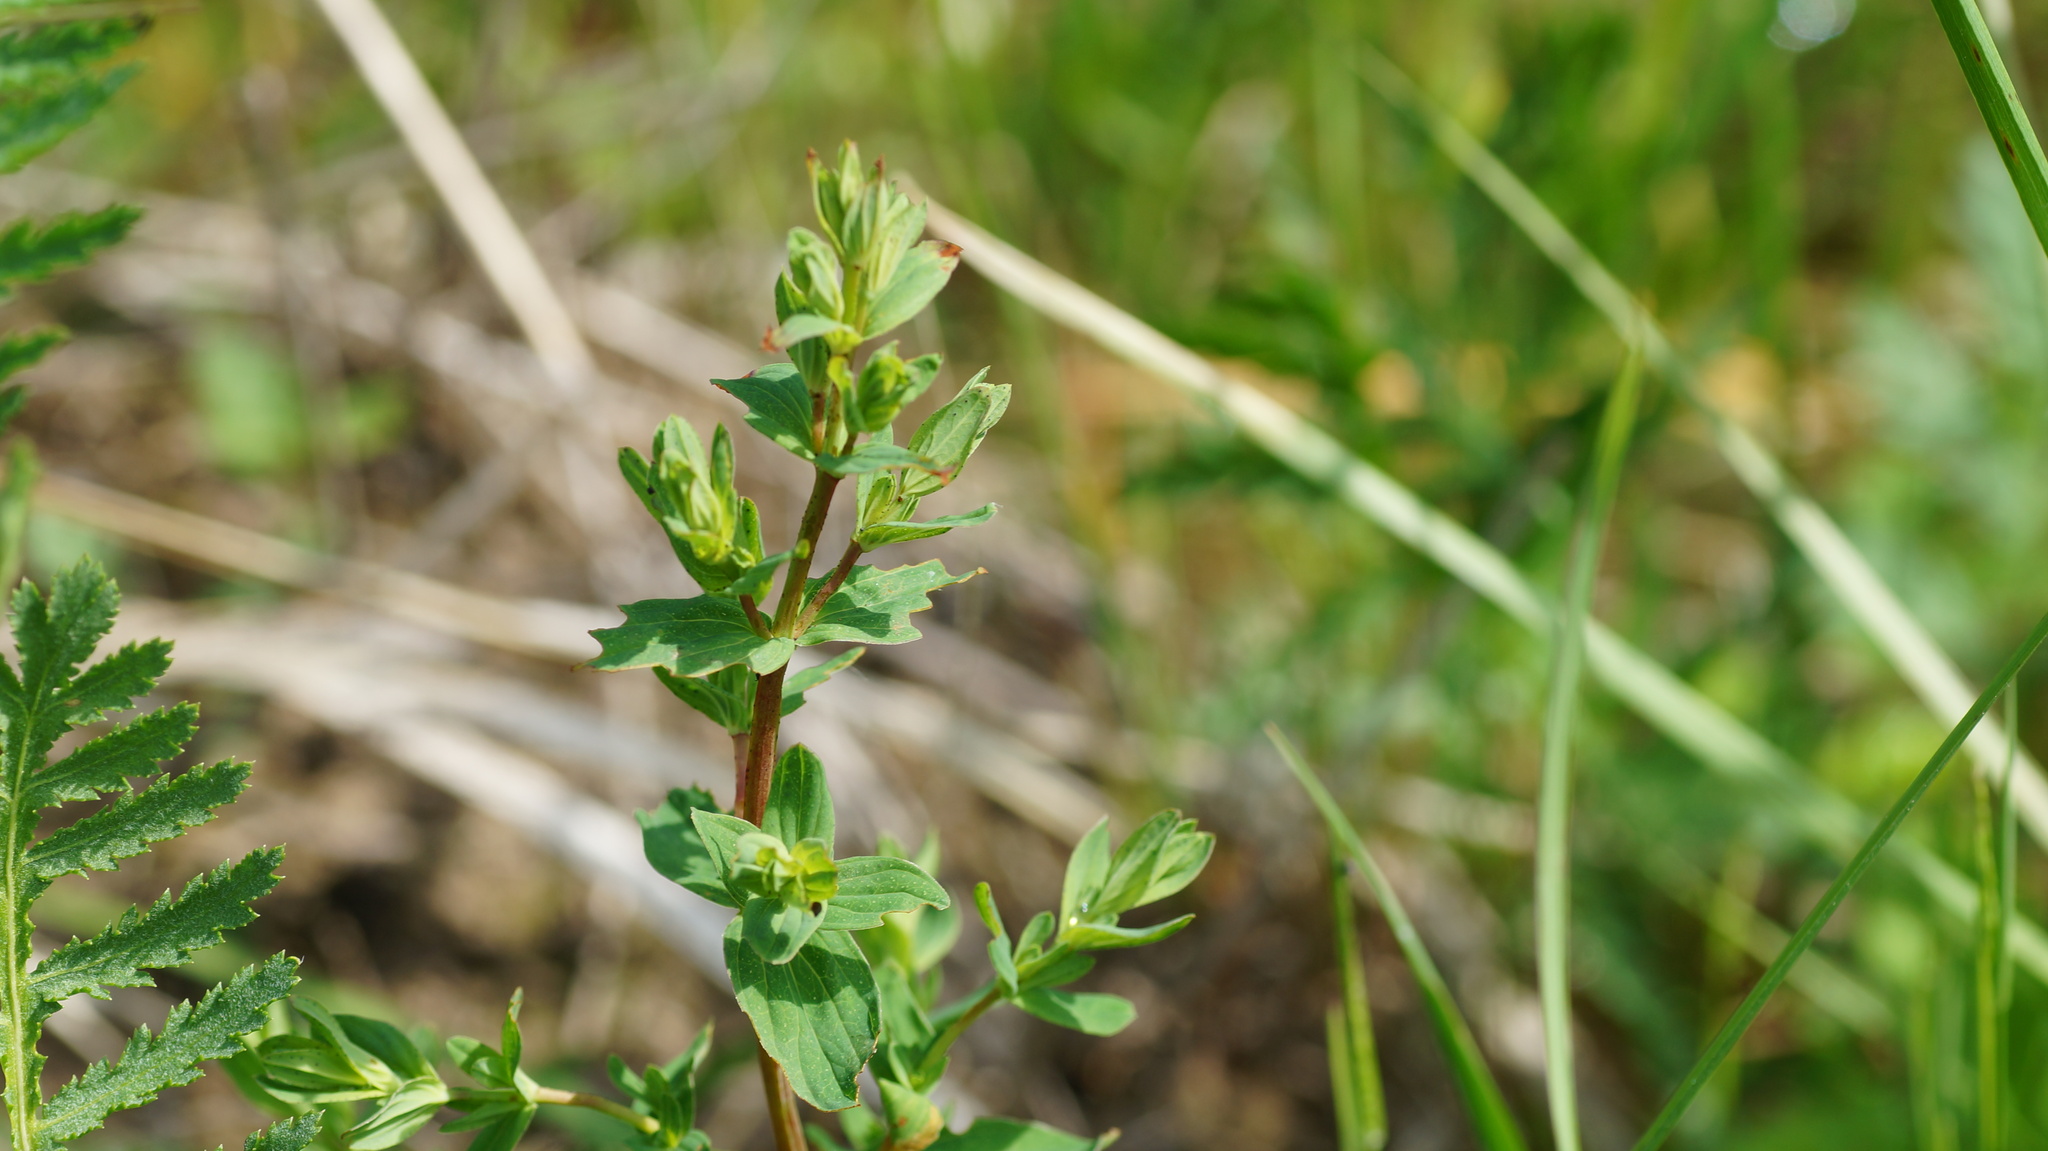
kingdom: Plantae
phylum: Tracheophyta
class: Magnoliopsida
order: Malpighiales
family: Hypericaceae
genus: Hypericum
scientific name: Hypericum perforatum
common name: Common st. johnswort
